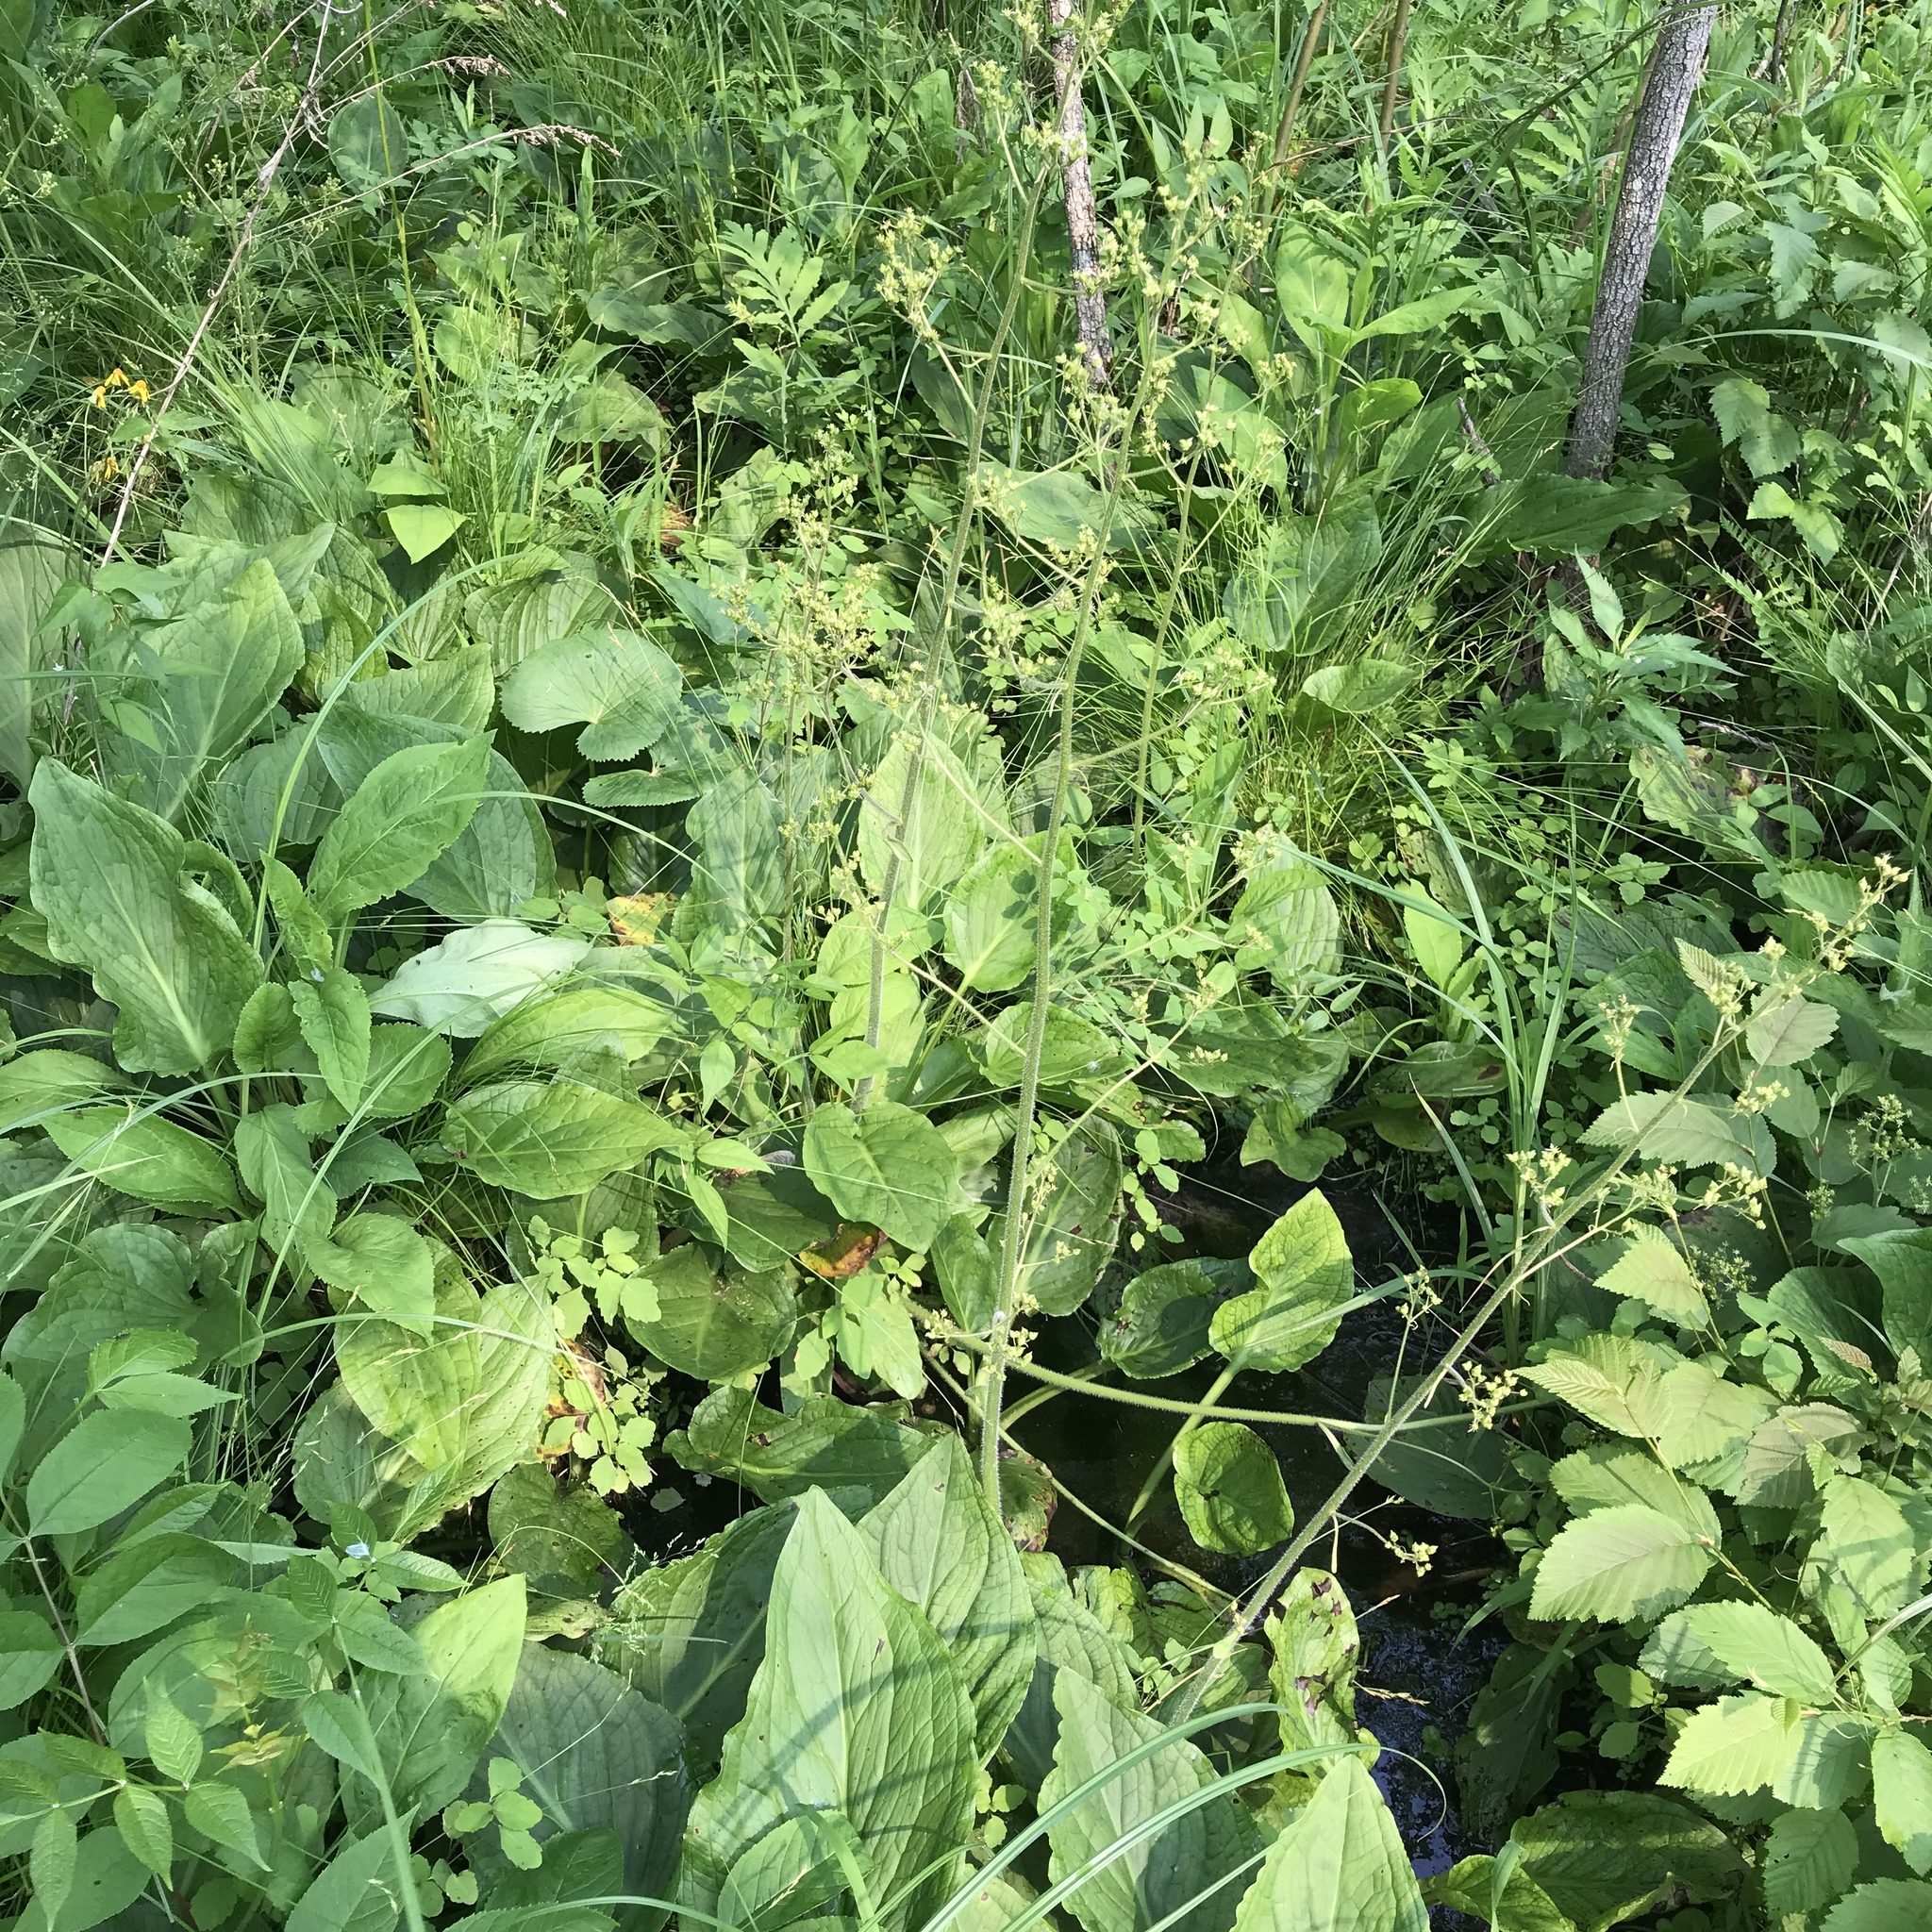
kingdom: Plantae
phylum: Tracheophyta
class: Magnoliopsida
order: Saxifragales
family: Saxifragaceae
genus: Micranthes
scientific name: Micranthes pensylvanica
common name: Marsh saxifrage
